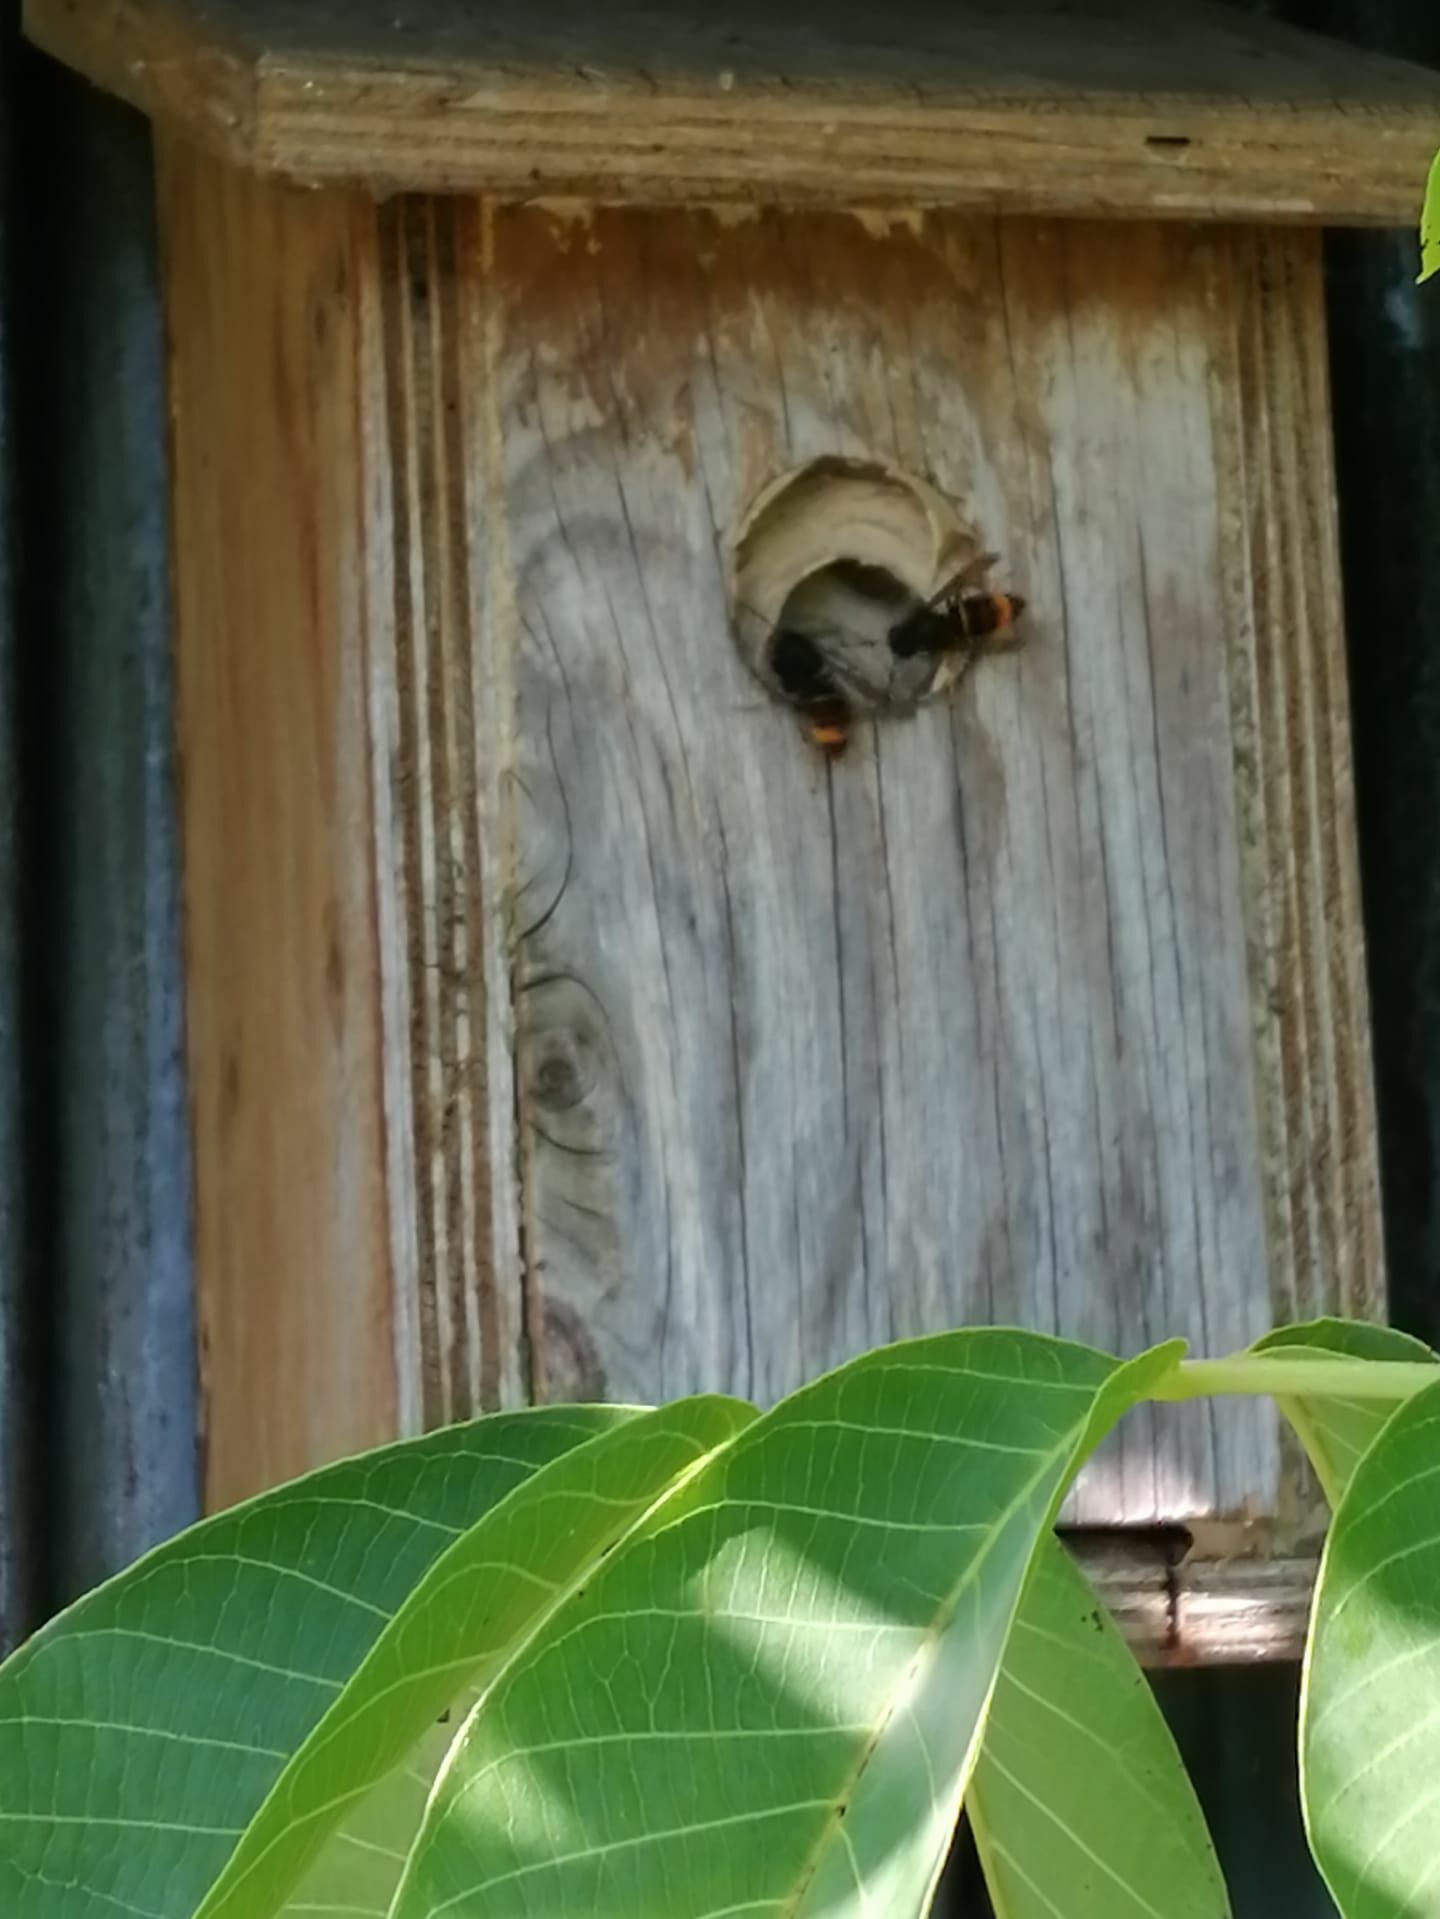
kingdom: Animalia
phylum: Arthropoda
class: Insecta
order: Hymenoptera
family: Vespidae
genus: Vespa
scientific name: Vespa velutina
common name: Asian hornet
